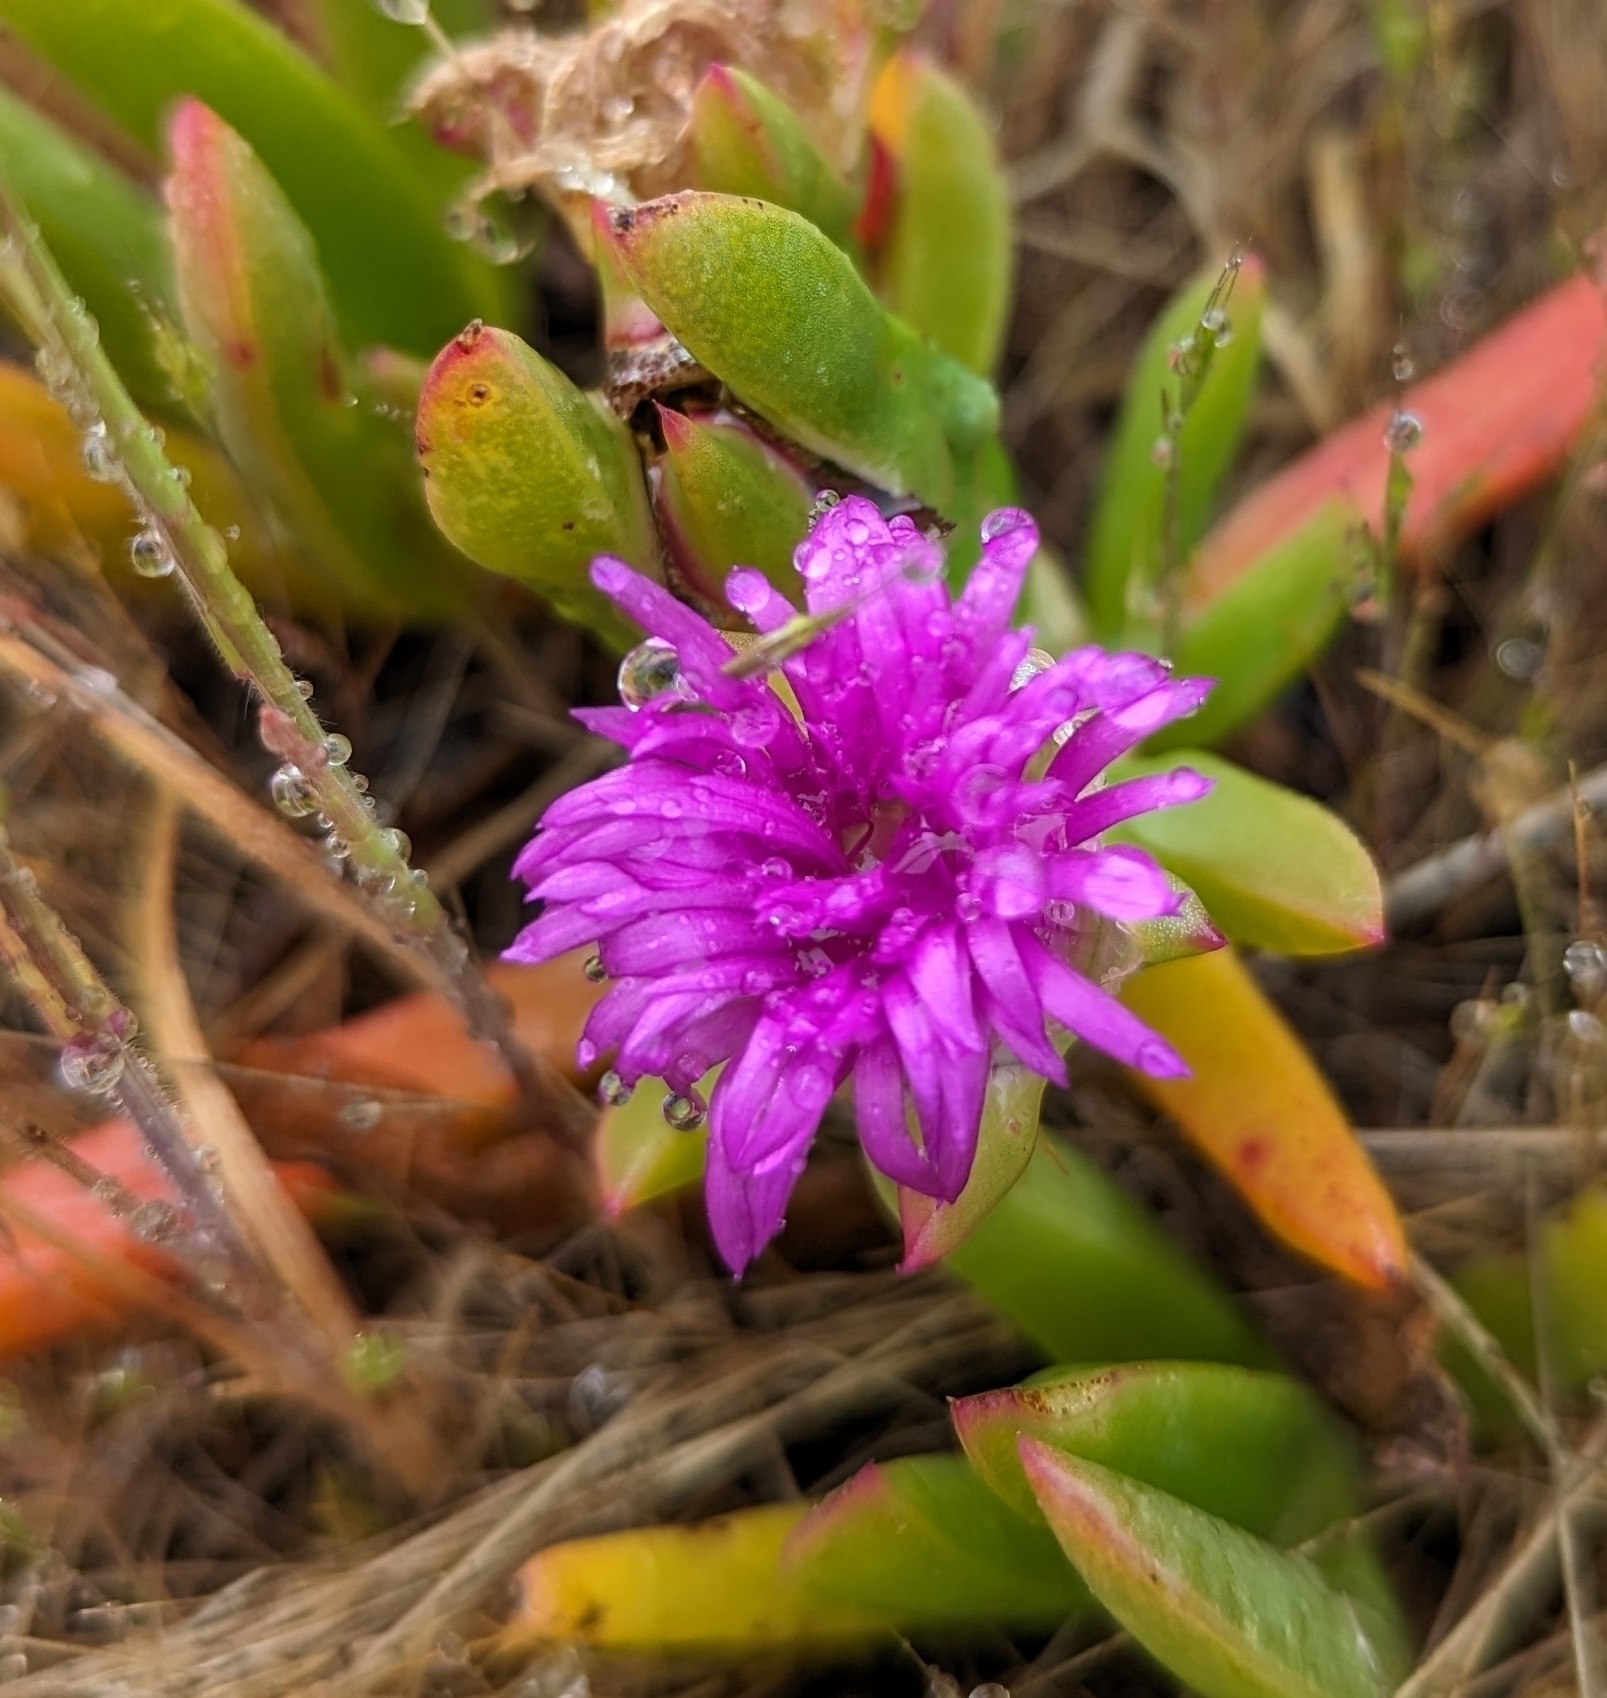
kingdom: Plantae
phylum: Tracheophyta
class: Magnoliopsida
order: Caryophyllales
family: Aizoaceae
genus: Carpobrotus
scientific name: Carpobrotus rossii
